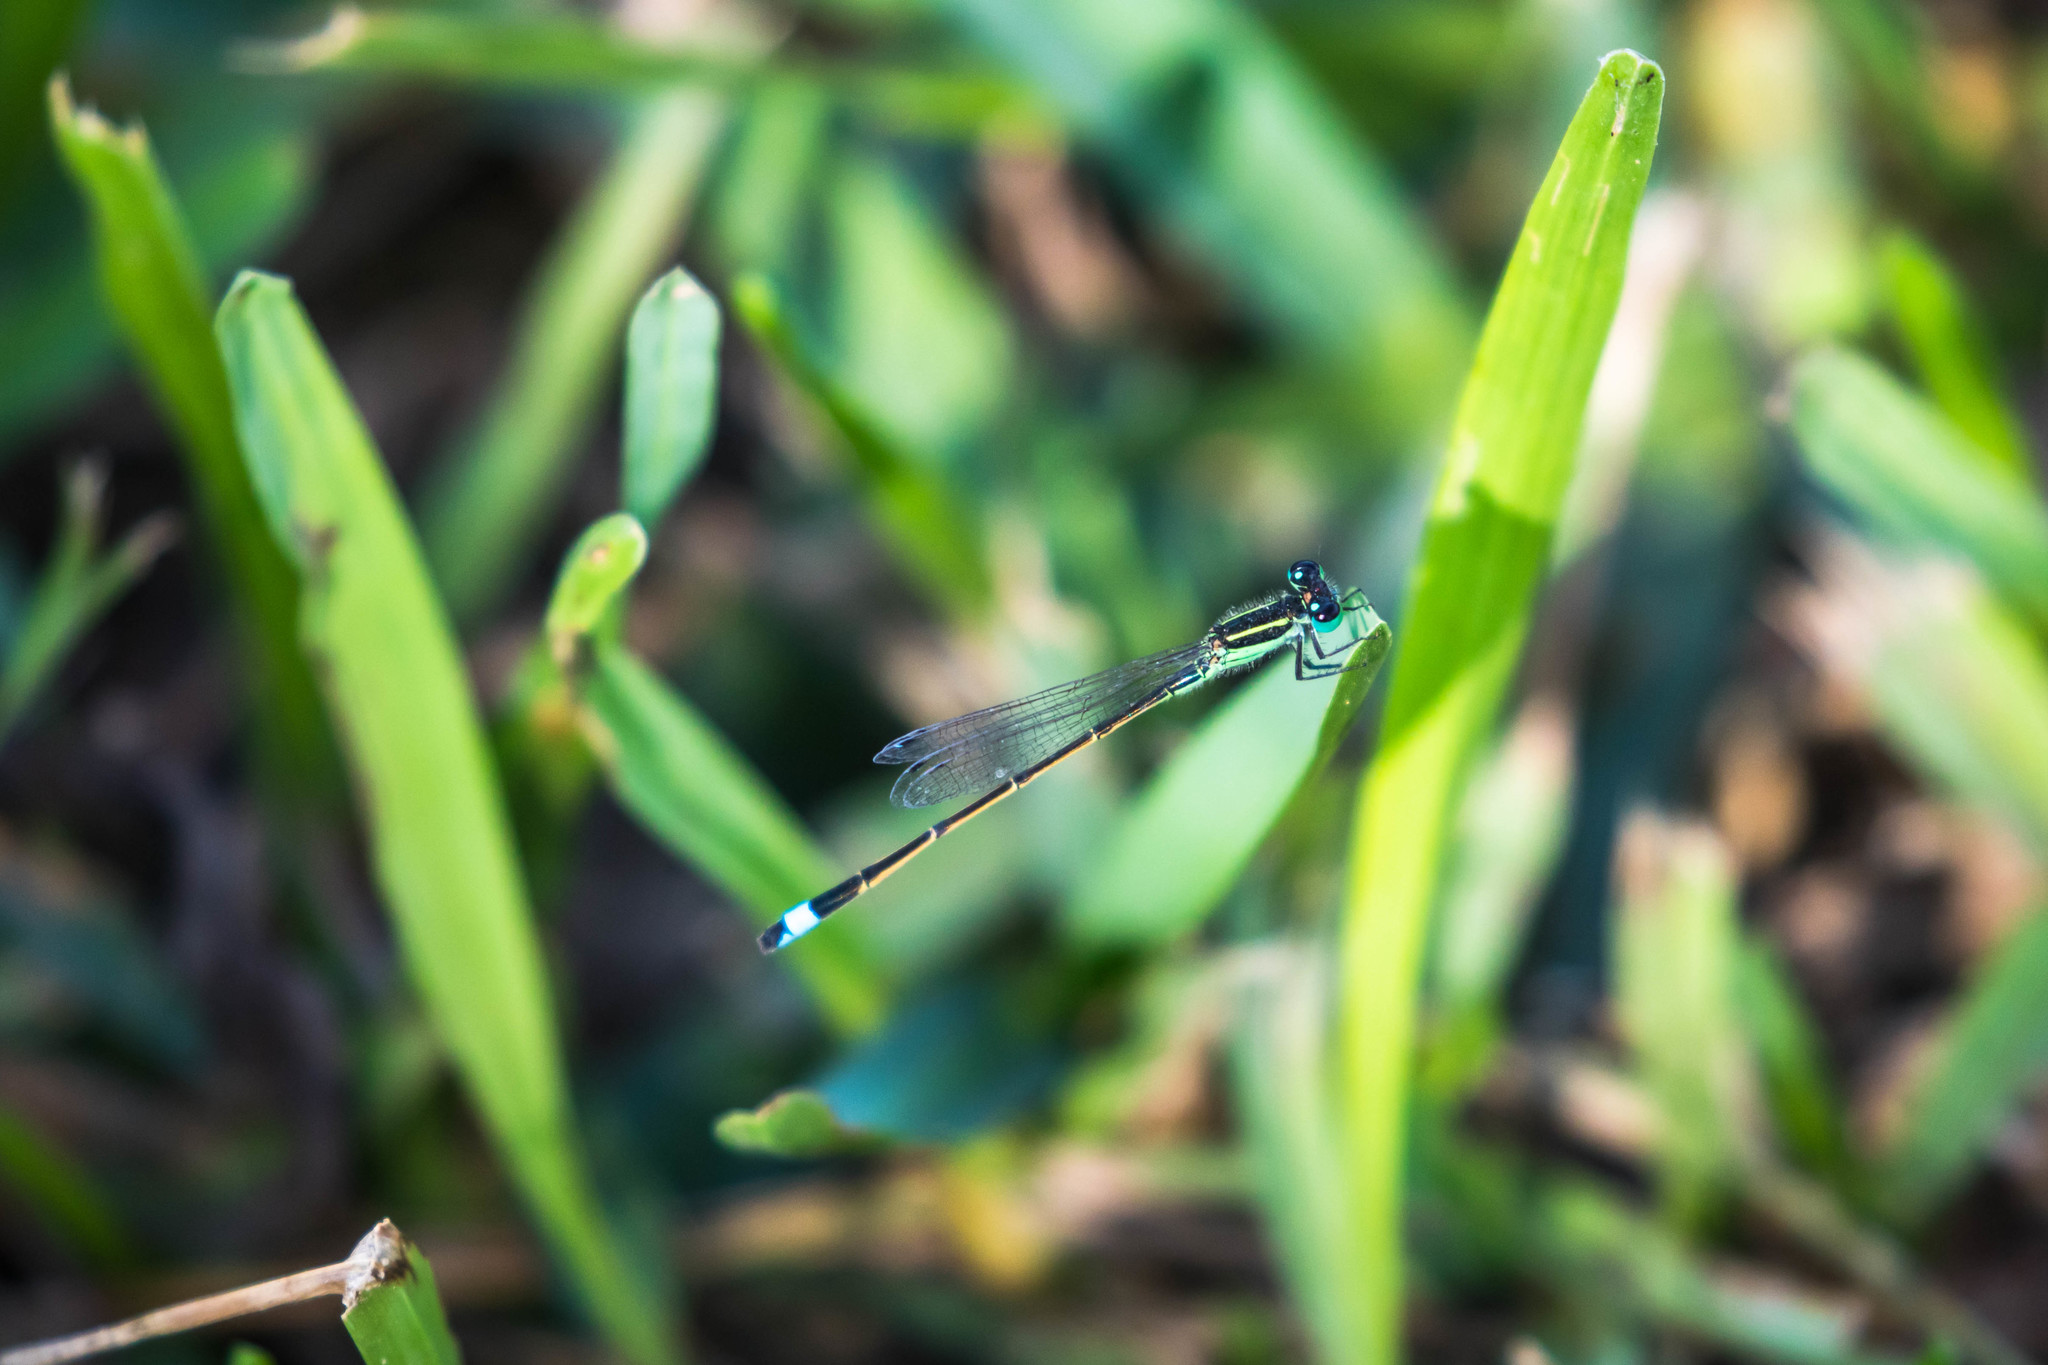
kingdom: Animalia
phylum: Arthropoda
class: Insecta
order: Odonata
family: Coenagrionidae
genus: Ischnura
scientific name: Ischnura ramburii
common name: Rambur's forktail
